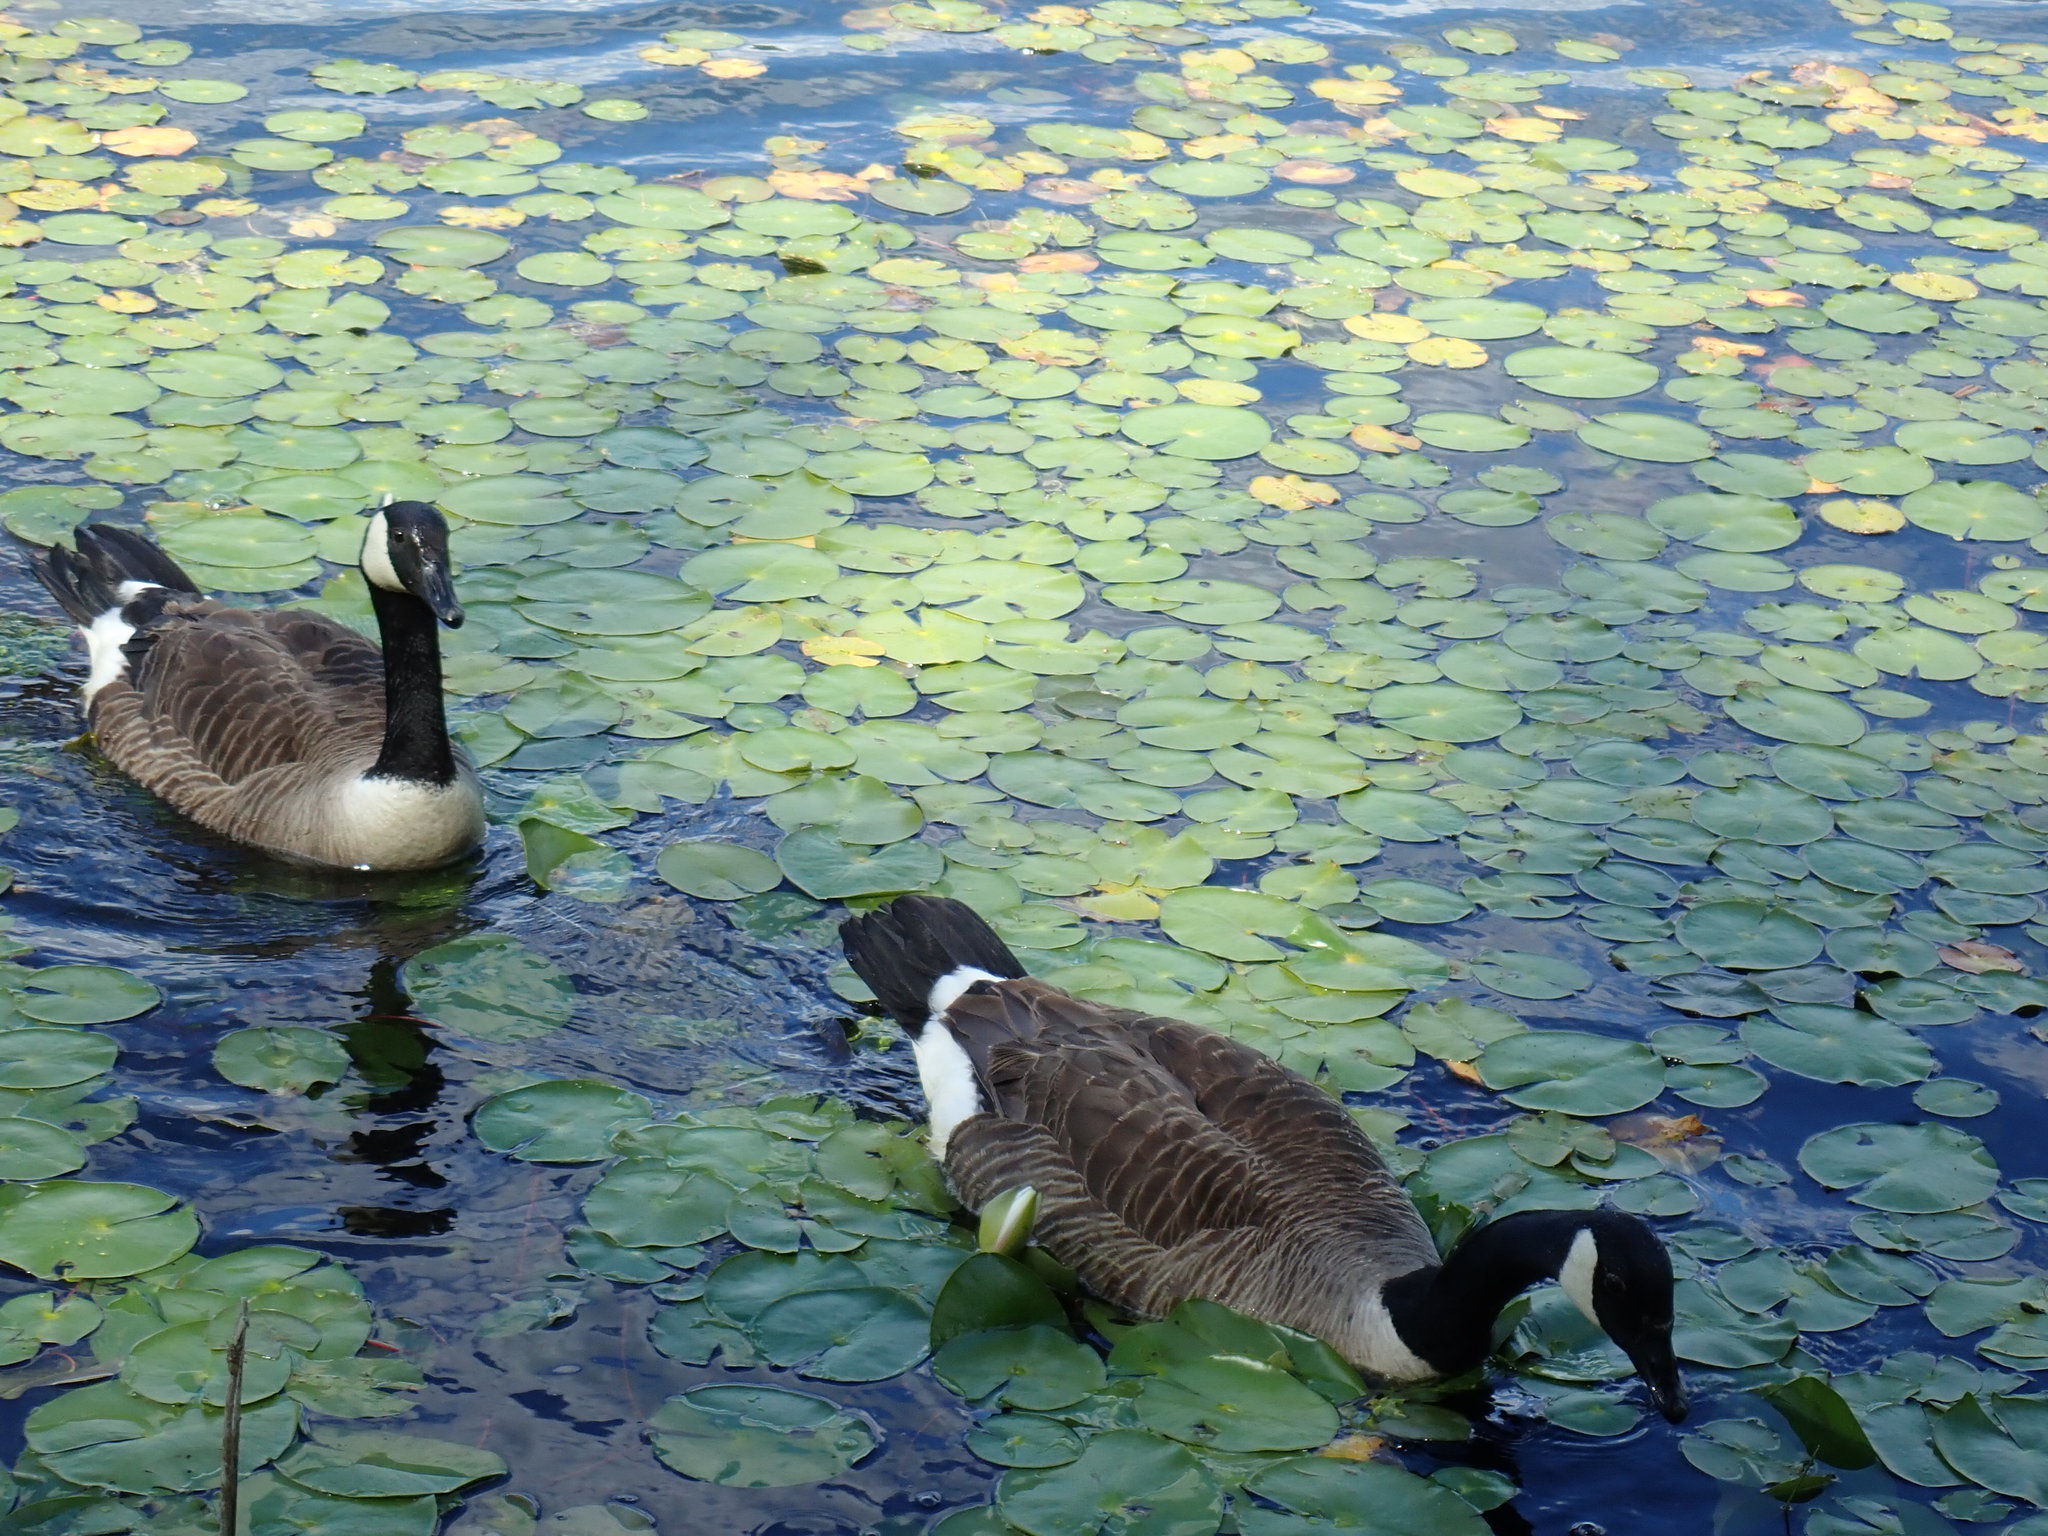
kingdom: Animalia
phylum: Chordata
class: Aves
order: Anseriformes
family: Anatidae
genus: Branta
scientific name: Branta canadensis
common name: Canada goose
